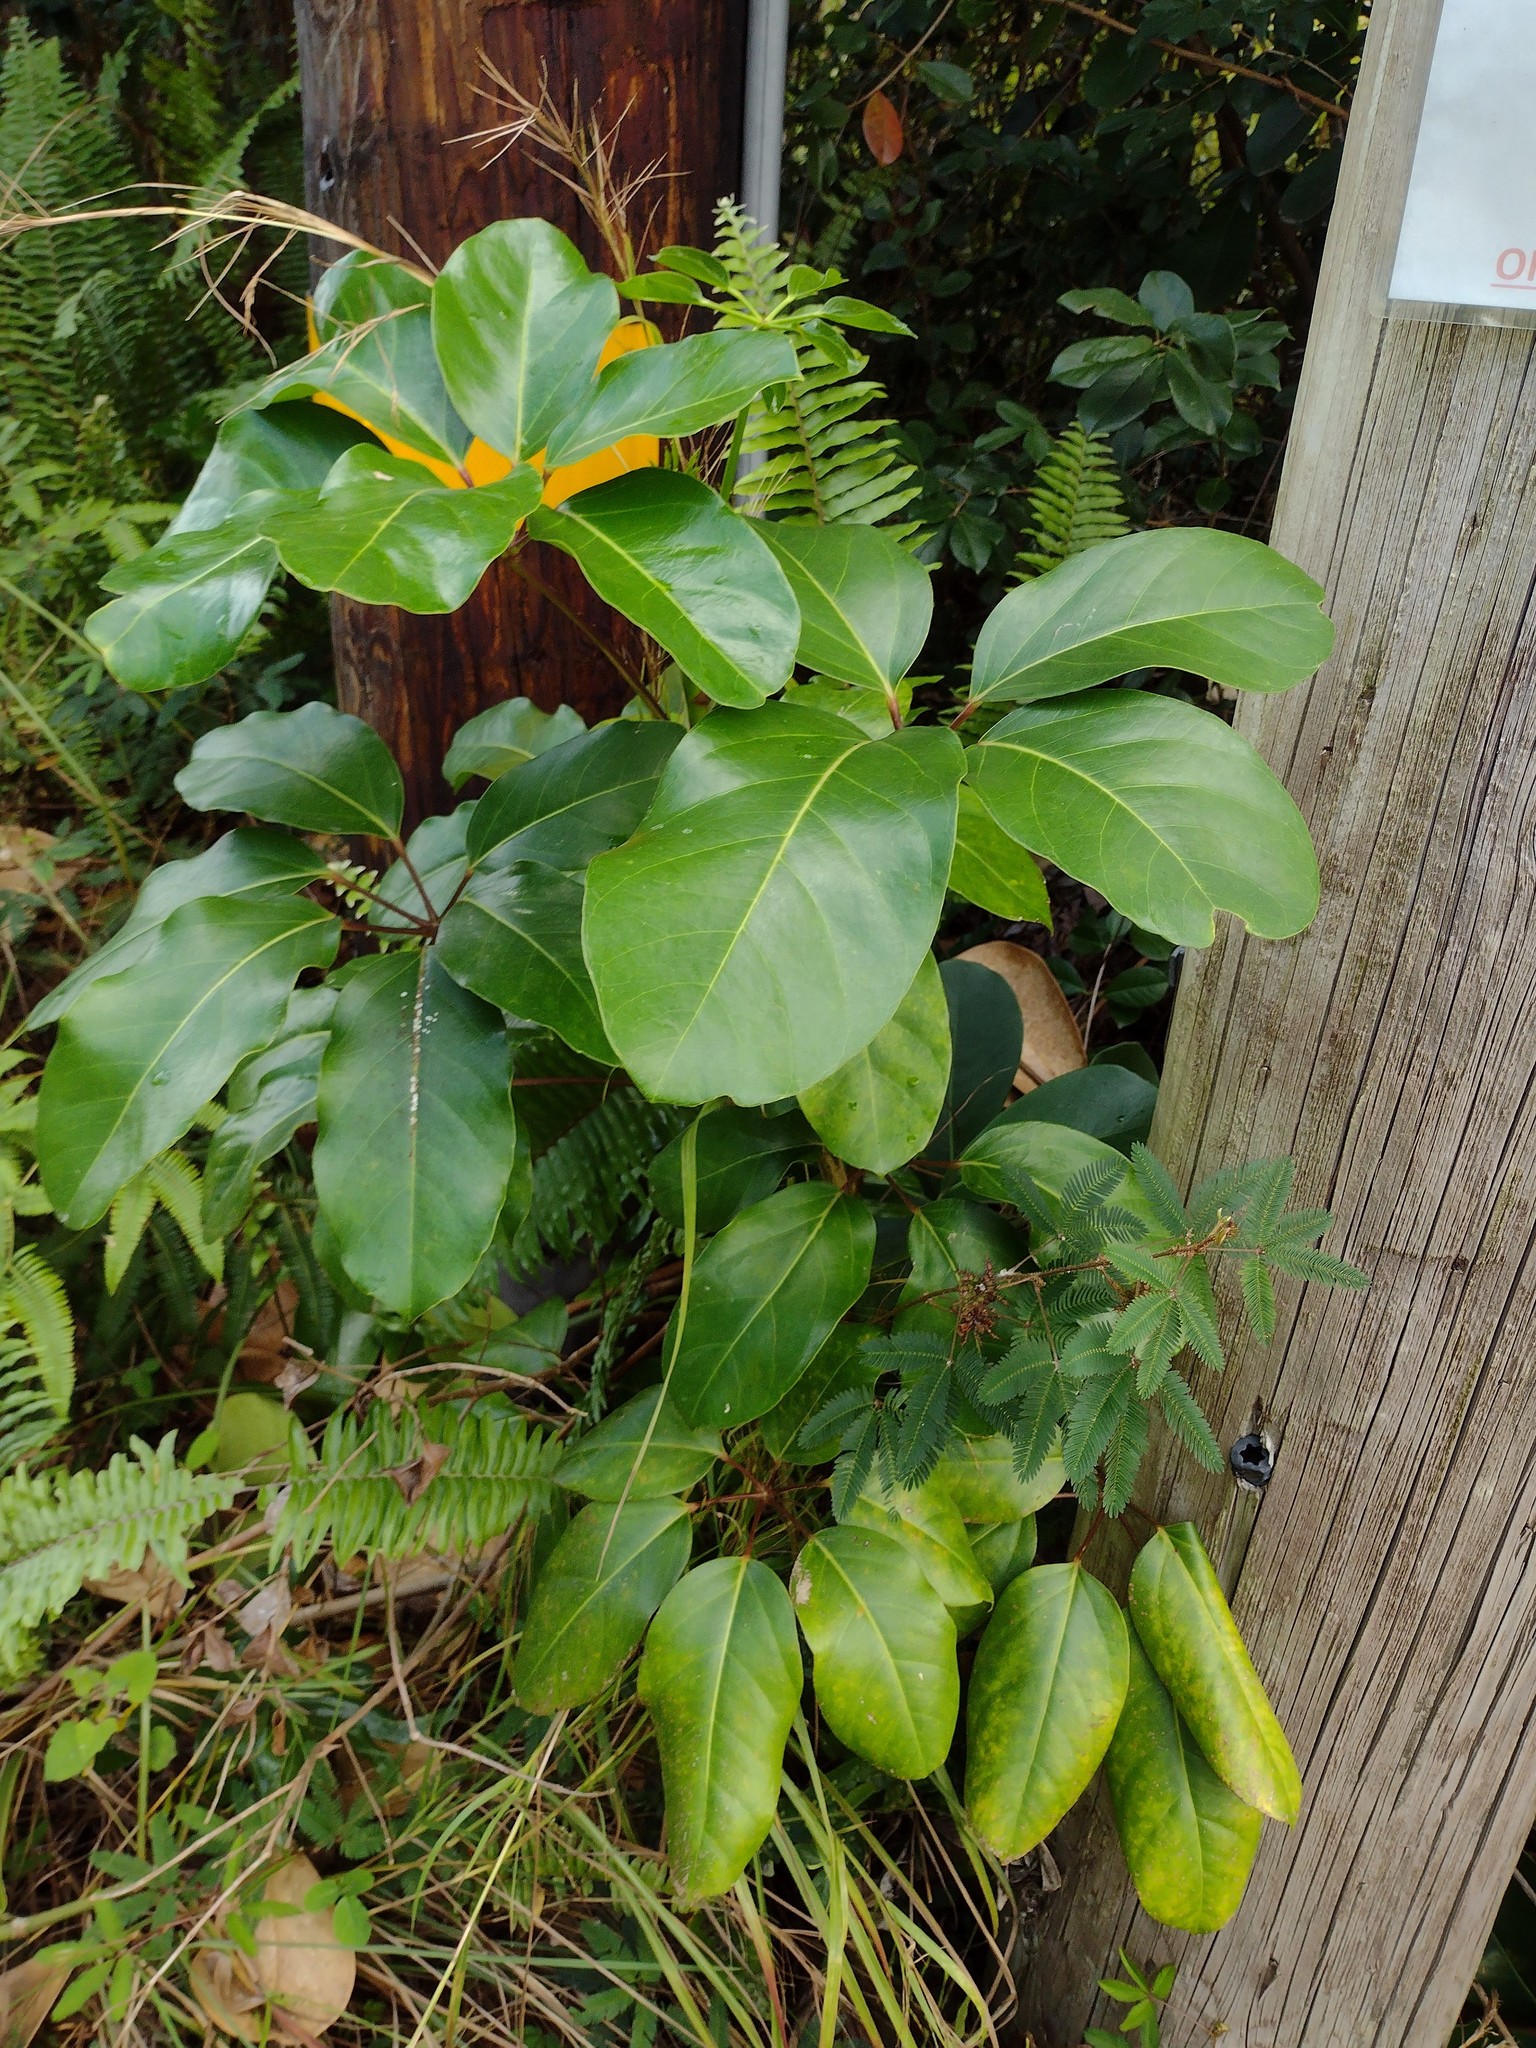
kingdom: Plantae
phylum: Tracheophyta
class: Magnoliopsida
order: Apiales
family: Araliaceae
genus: Heptapleurum
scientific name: Heptapleurum actinophyllum
